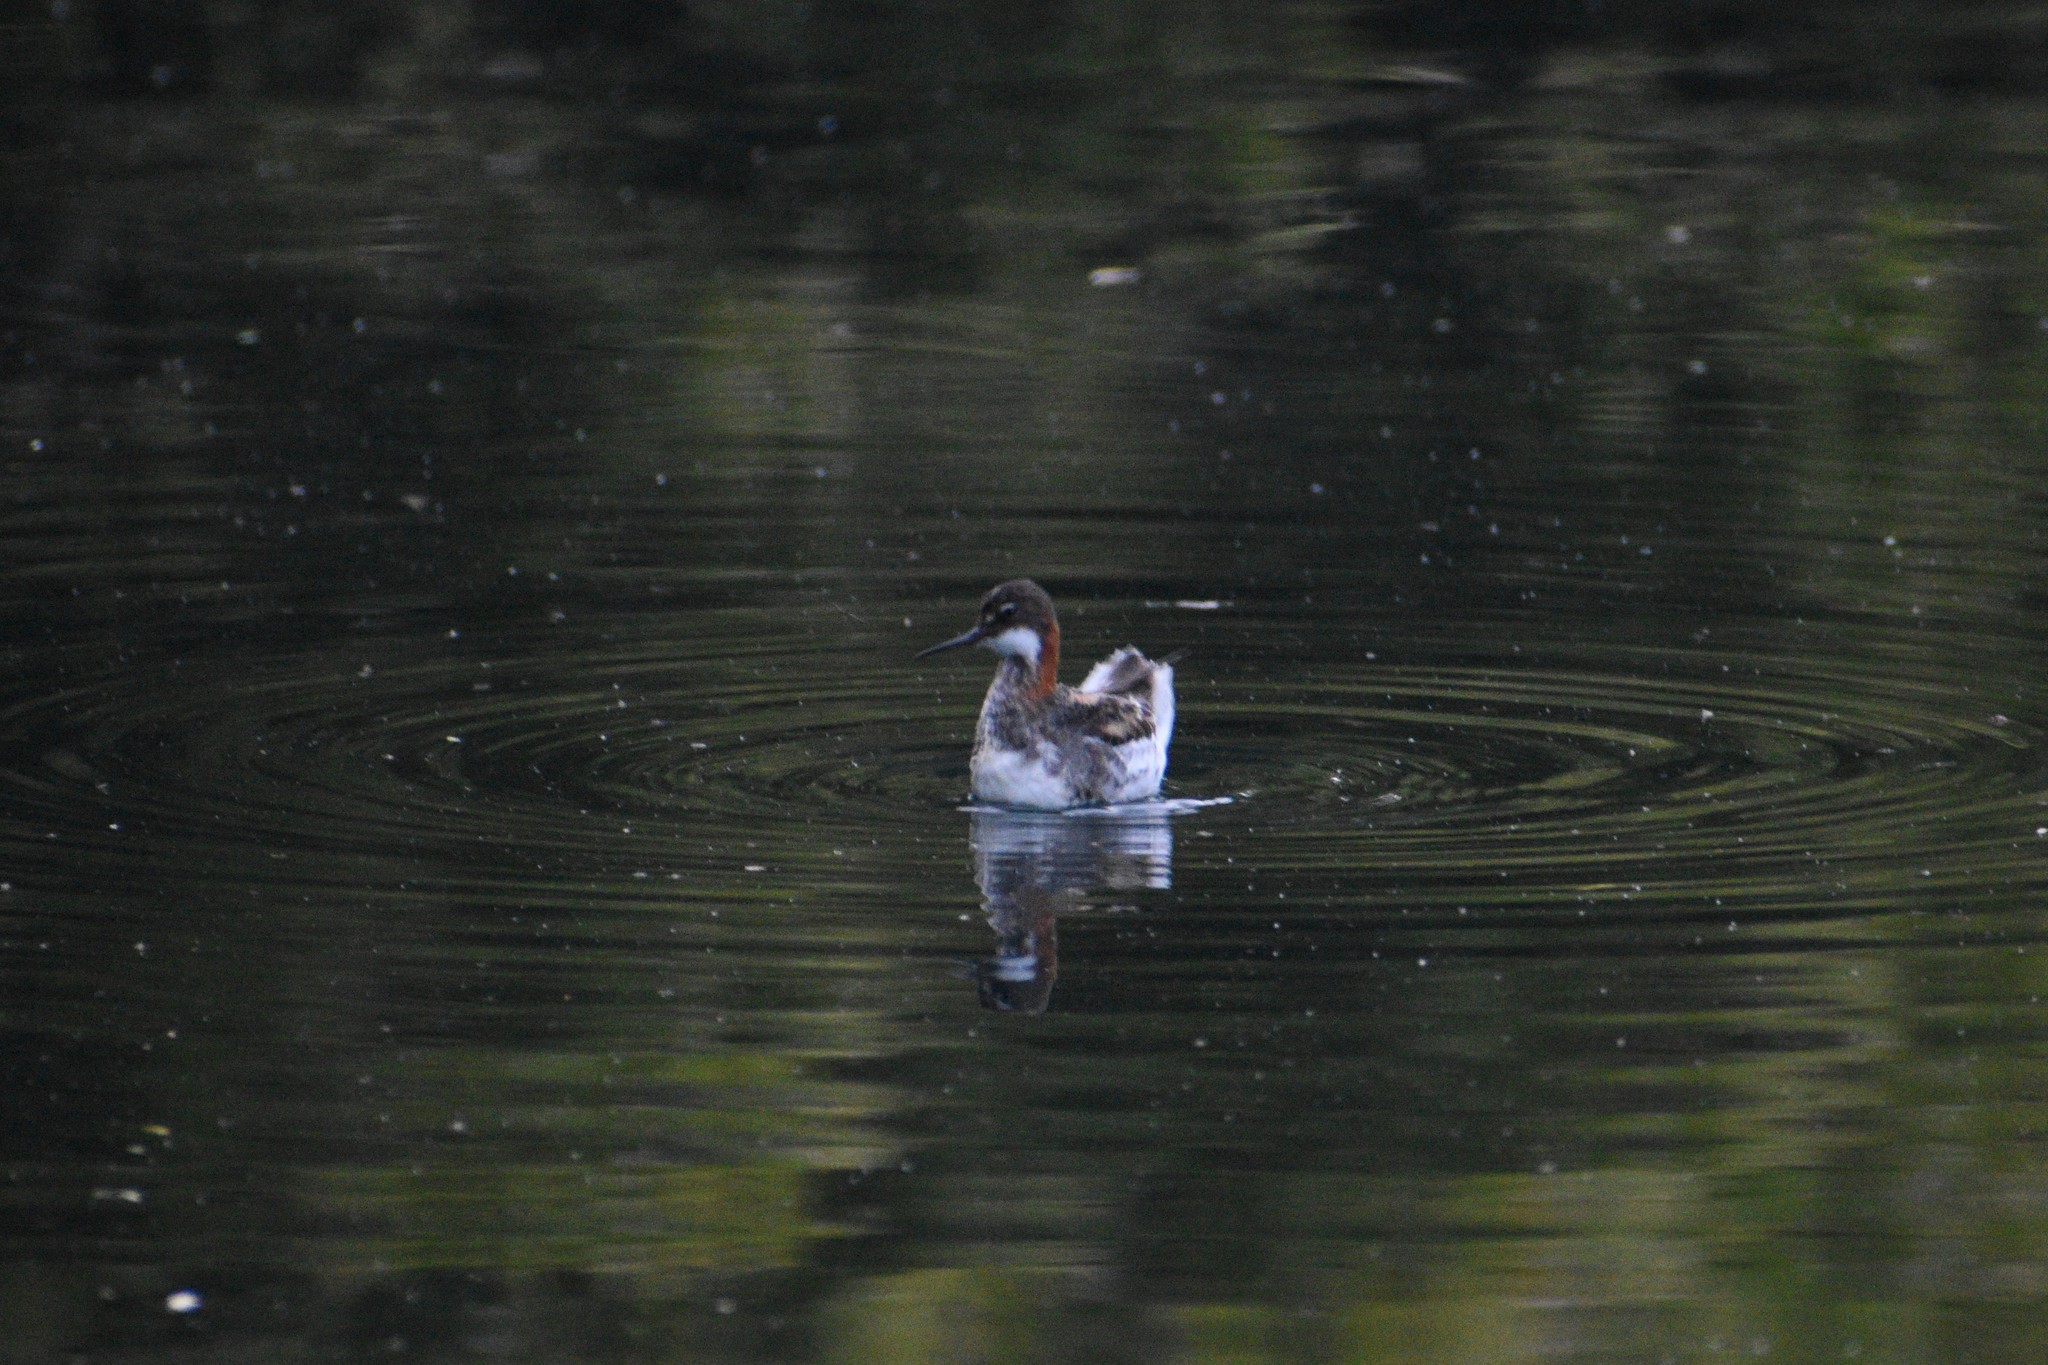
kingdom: Animalia
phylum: Chordata
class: Aves
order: Charadriiformes
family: Scolopacidae
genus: Phalaropus
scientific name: Phalaropus lobatus
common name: Red-necked phalarope
